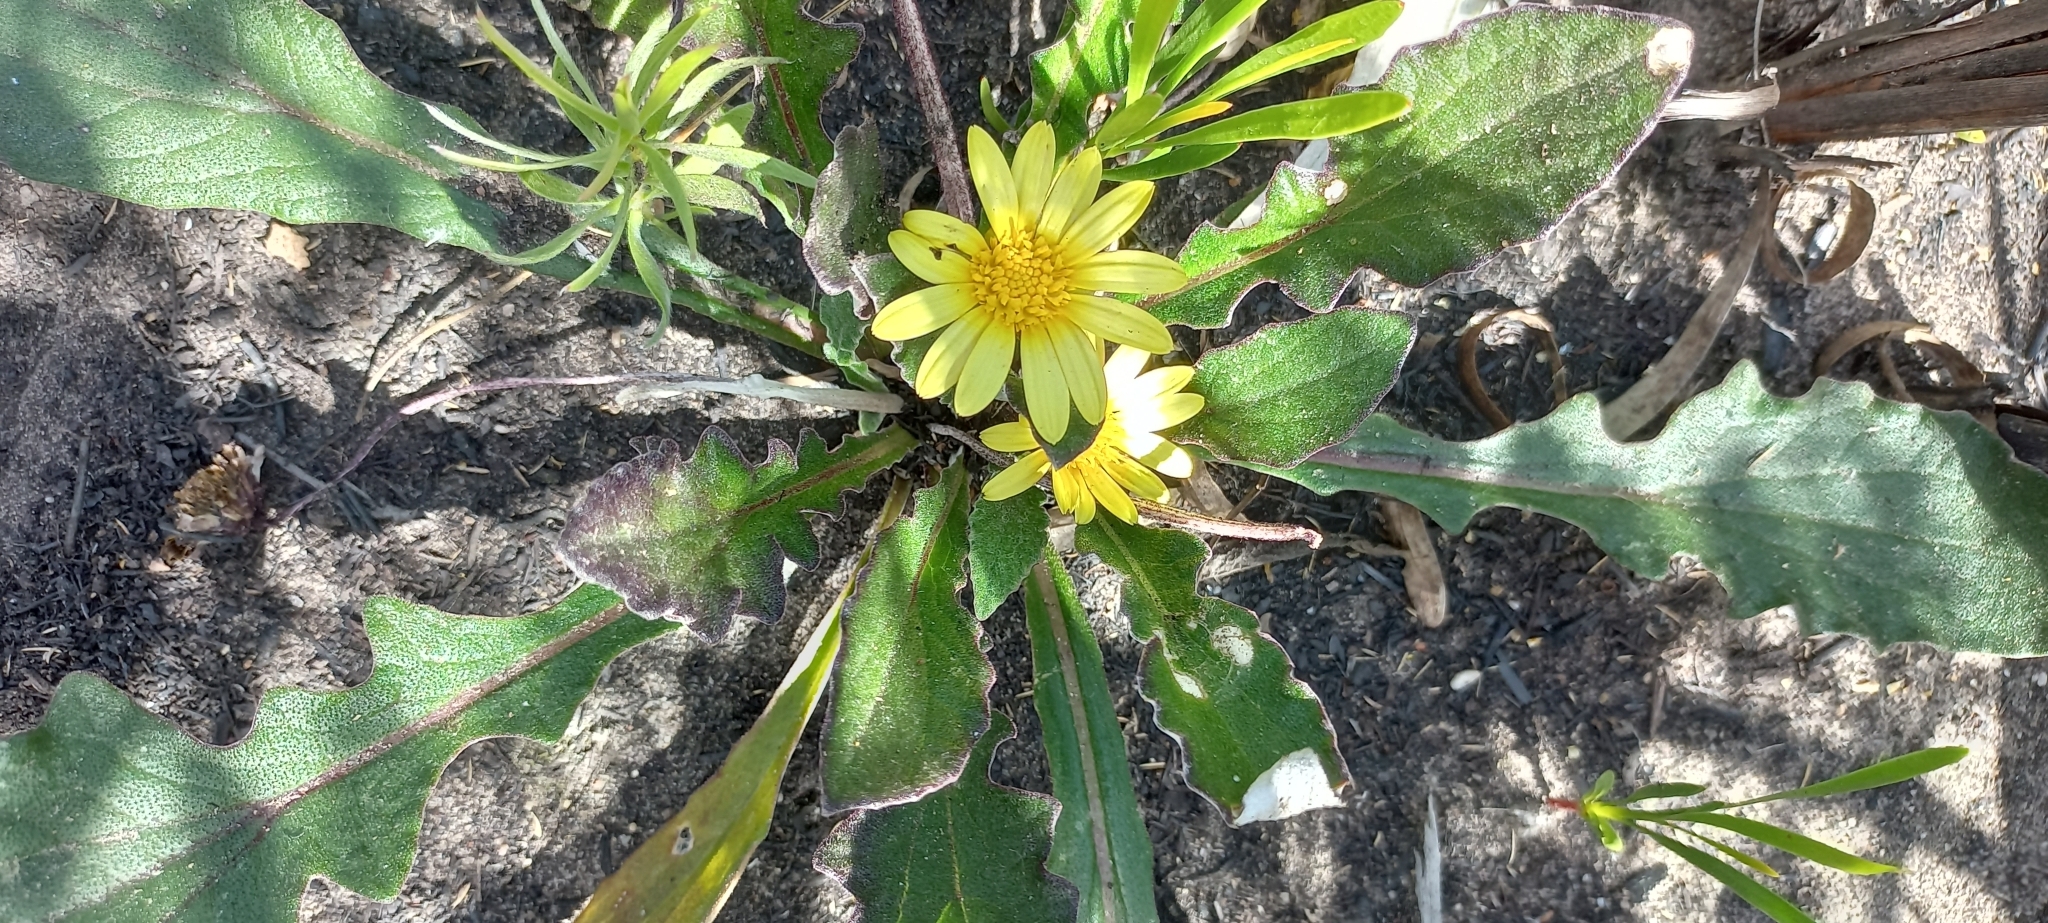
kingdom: Plantae
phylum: Tracheophyta
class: Magnoliopsida
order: Asterales
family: Asteraceae
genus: Haplocarpha
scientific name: Haplocarpha lanata
